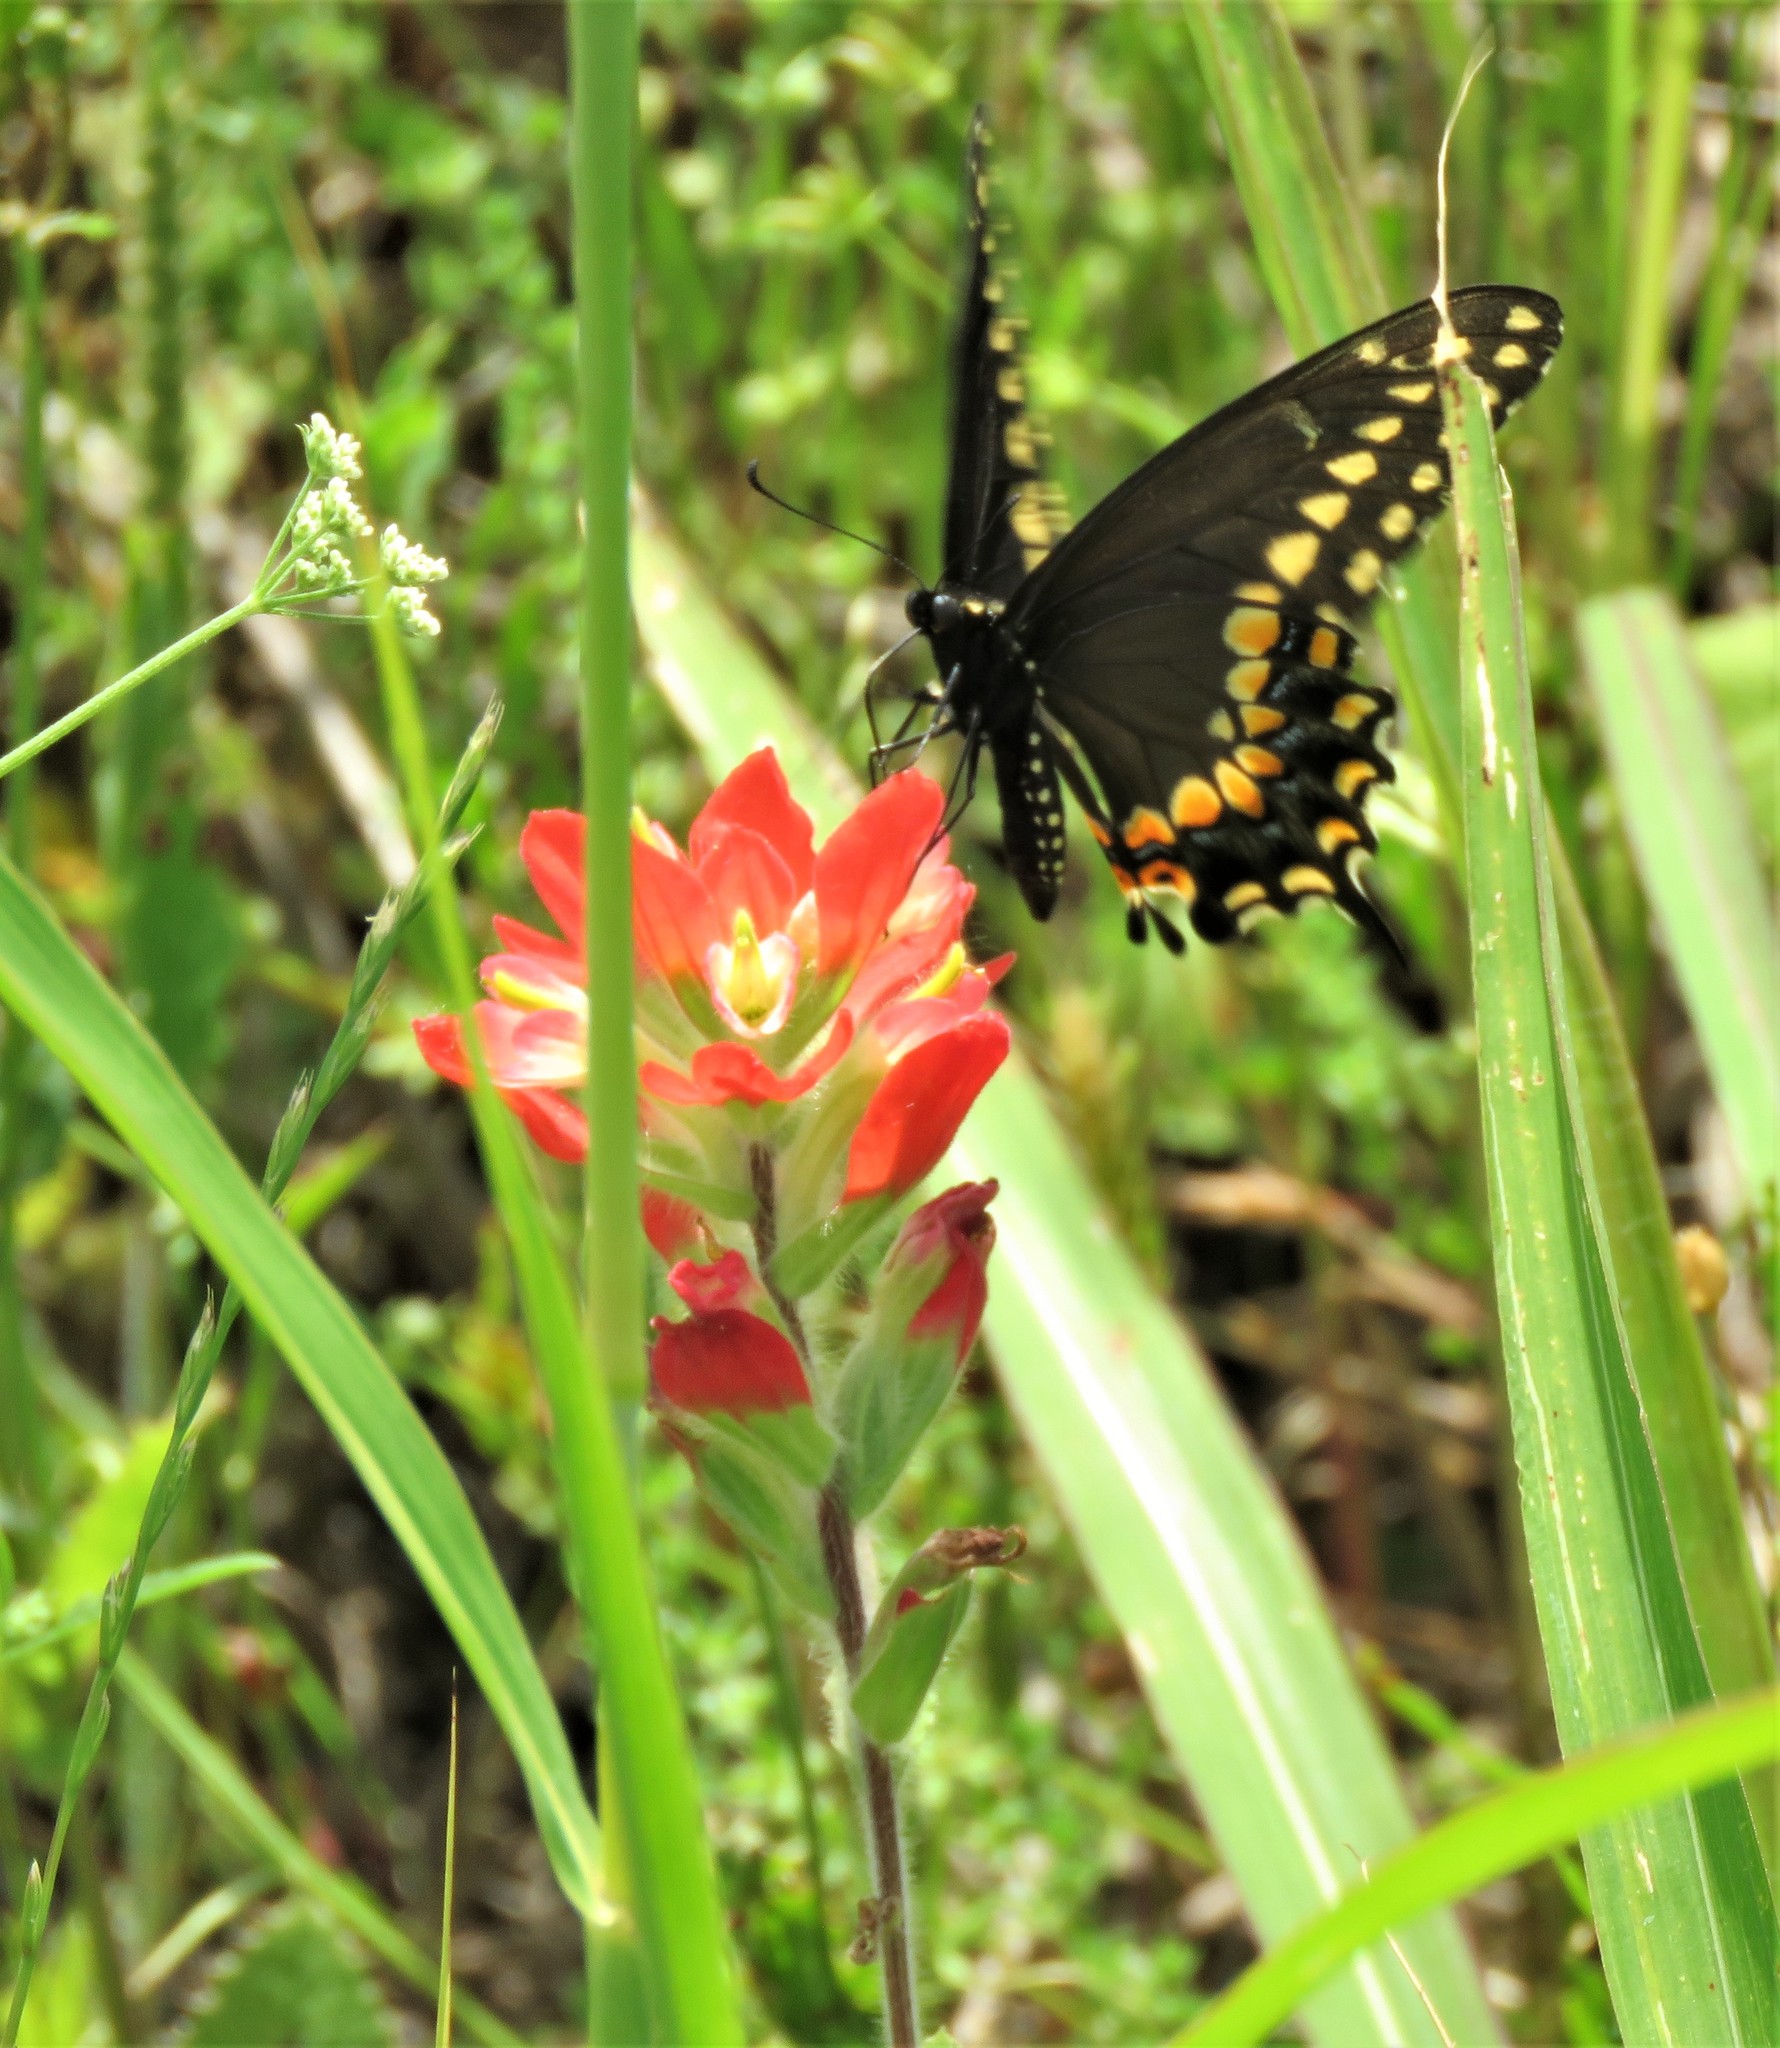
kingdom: Plantae
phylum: Tracheophyta
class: Magnoliopsida
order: Lamiales
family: Orobanchaceae
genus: Castilleja
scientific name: Castilleja indivisa
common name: Texas paintbrush
